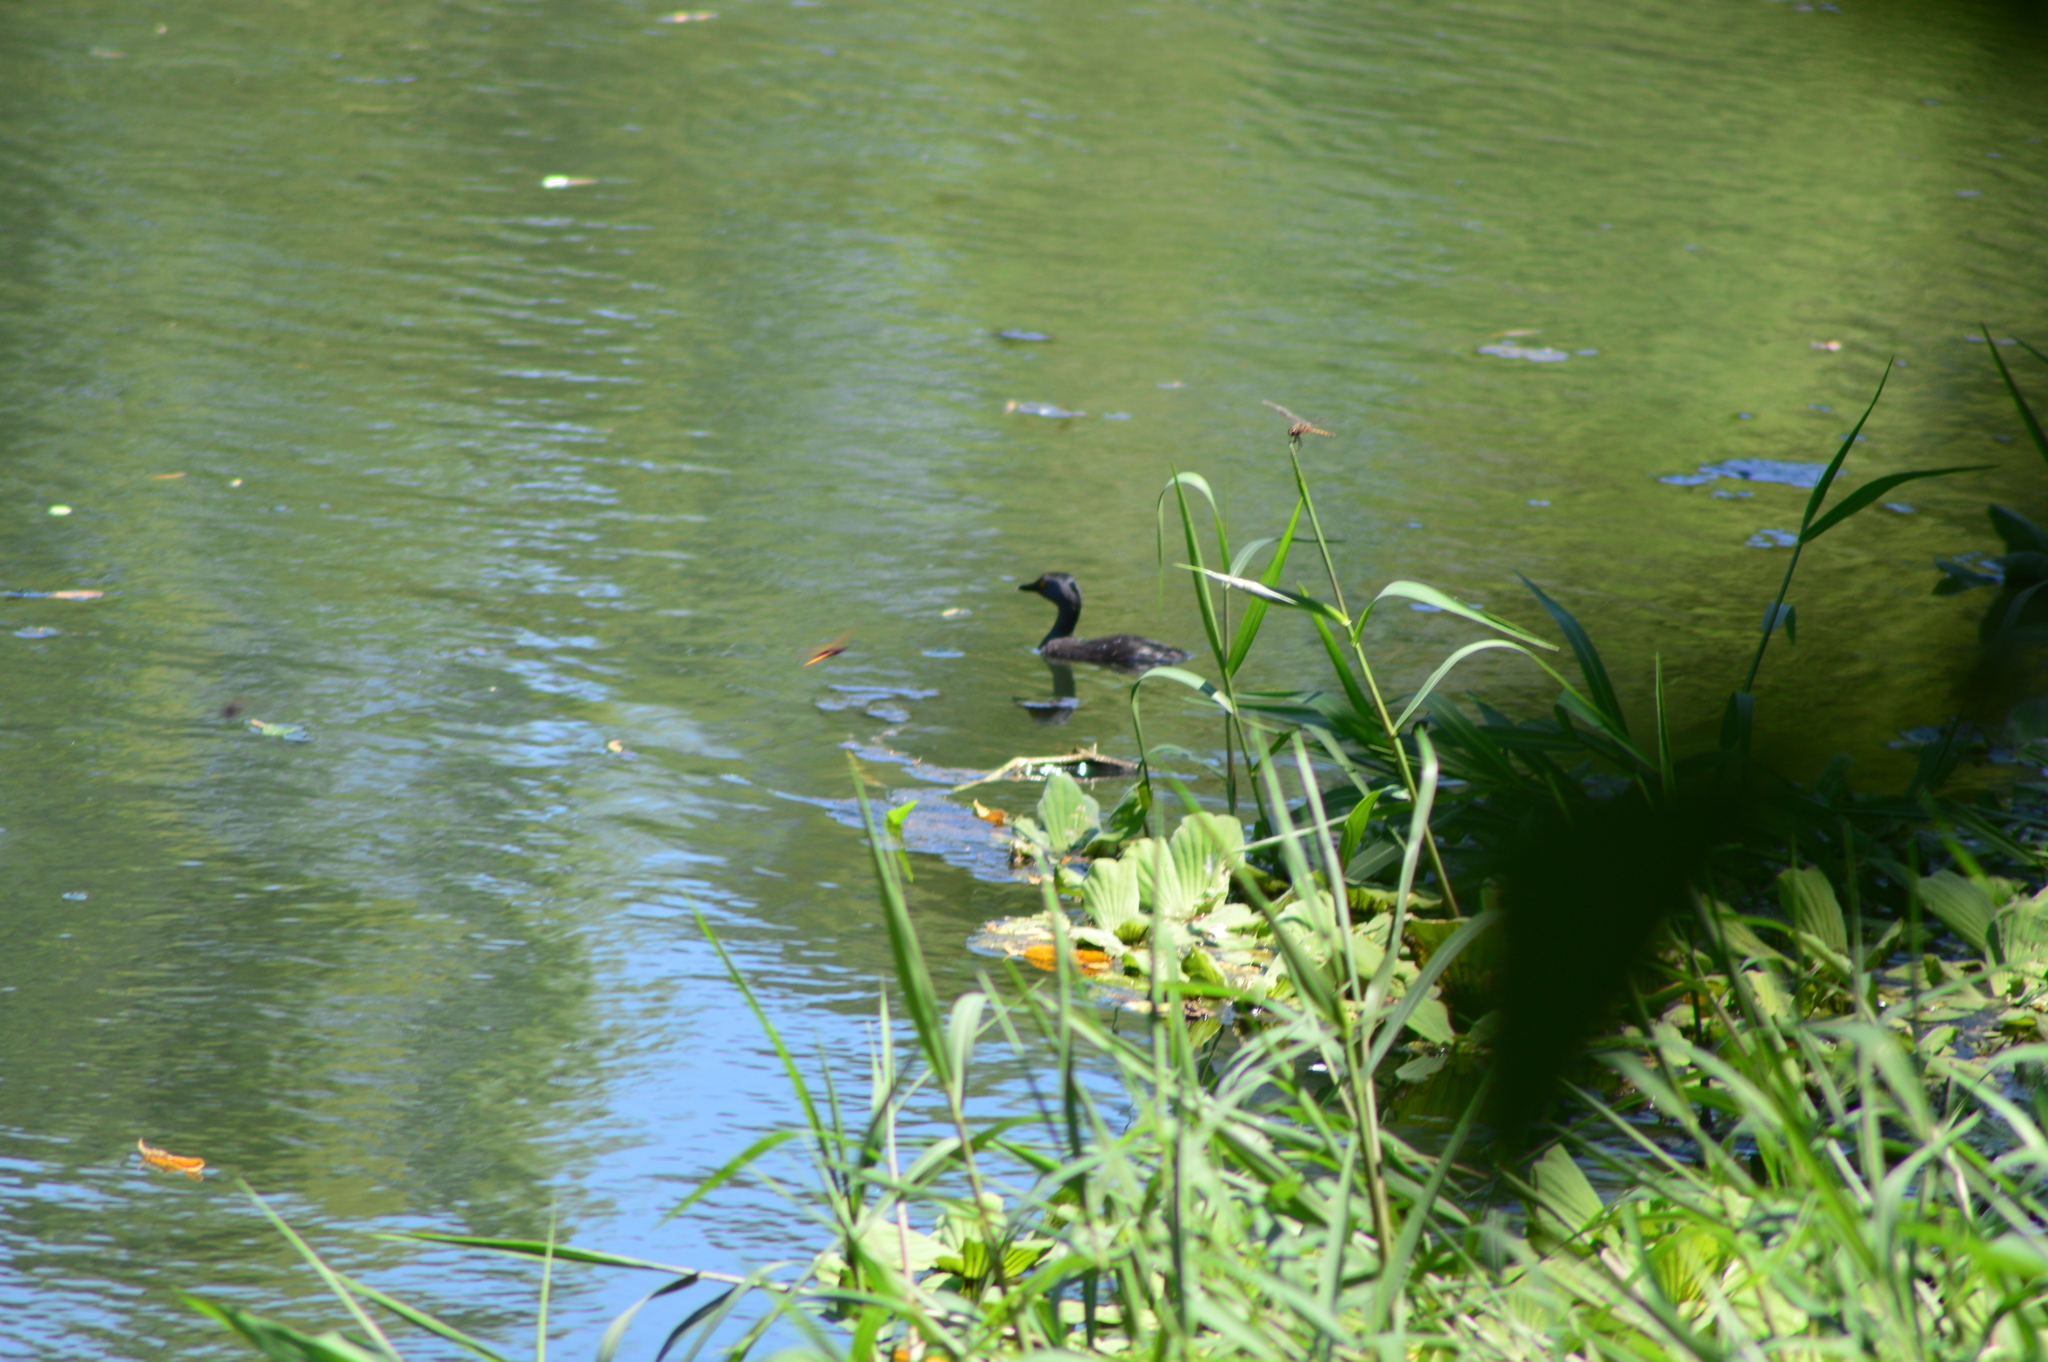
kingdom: Animalia
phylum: Chordata
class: Aves
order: Podicipediformes
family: Podicipedidae
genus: Tachybaptus
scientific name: Tachybaptus dominicus
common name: Least grebe
